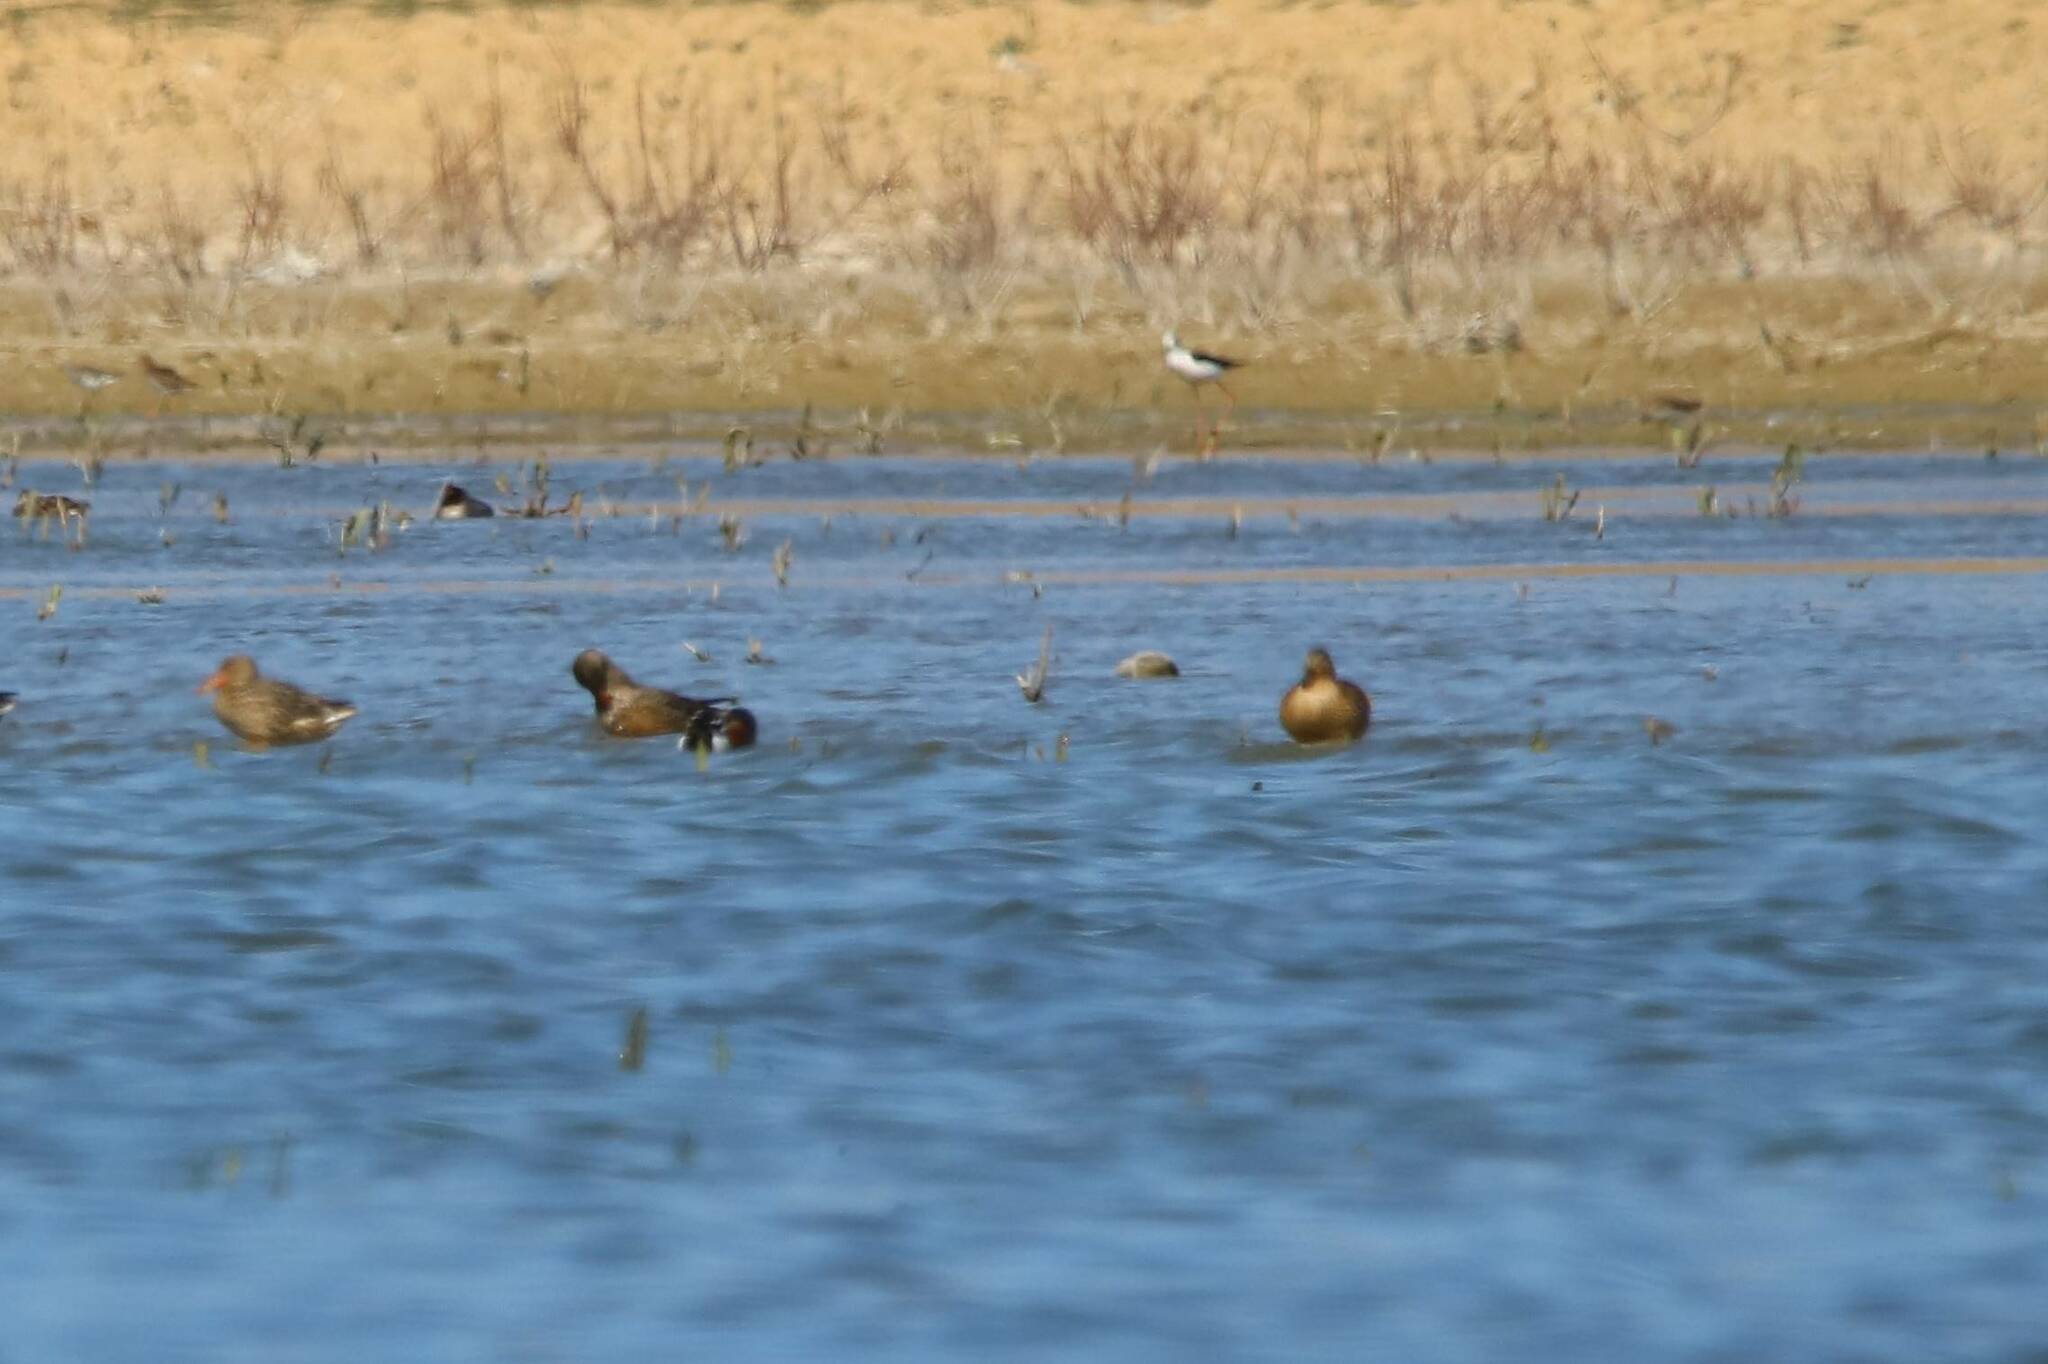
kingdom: Animalia
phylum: Chordata
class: Aves
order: Anseriformes
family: Anatidae
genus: Spatula
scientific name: Spatula clypeata
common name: Northern shoveler
